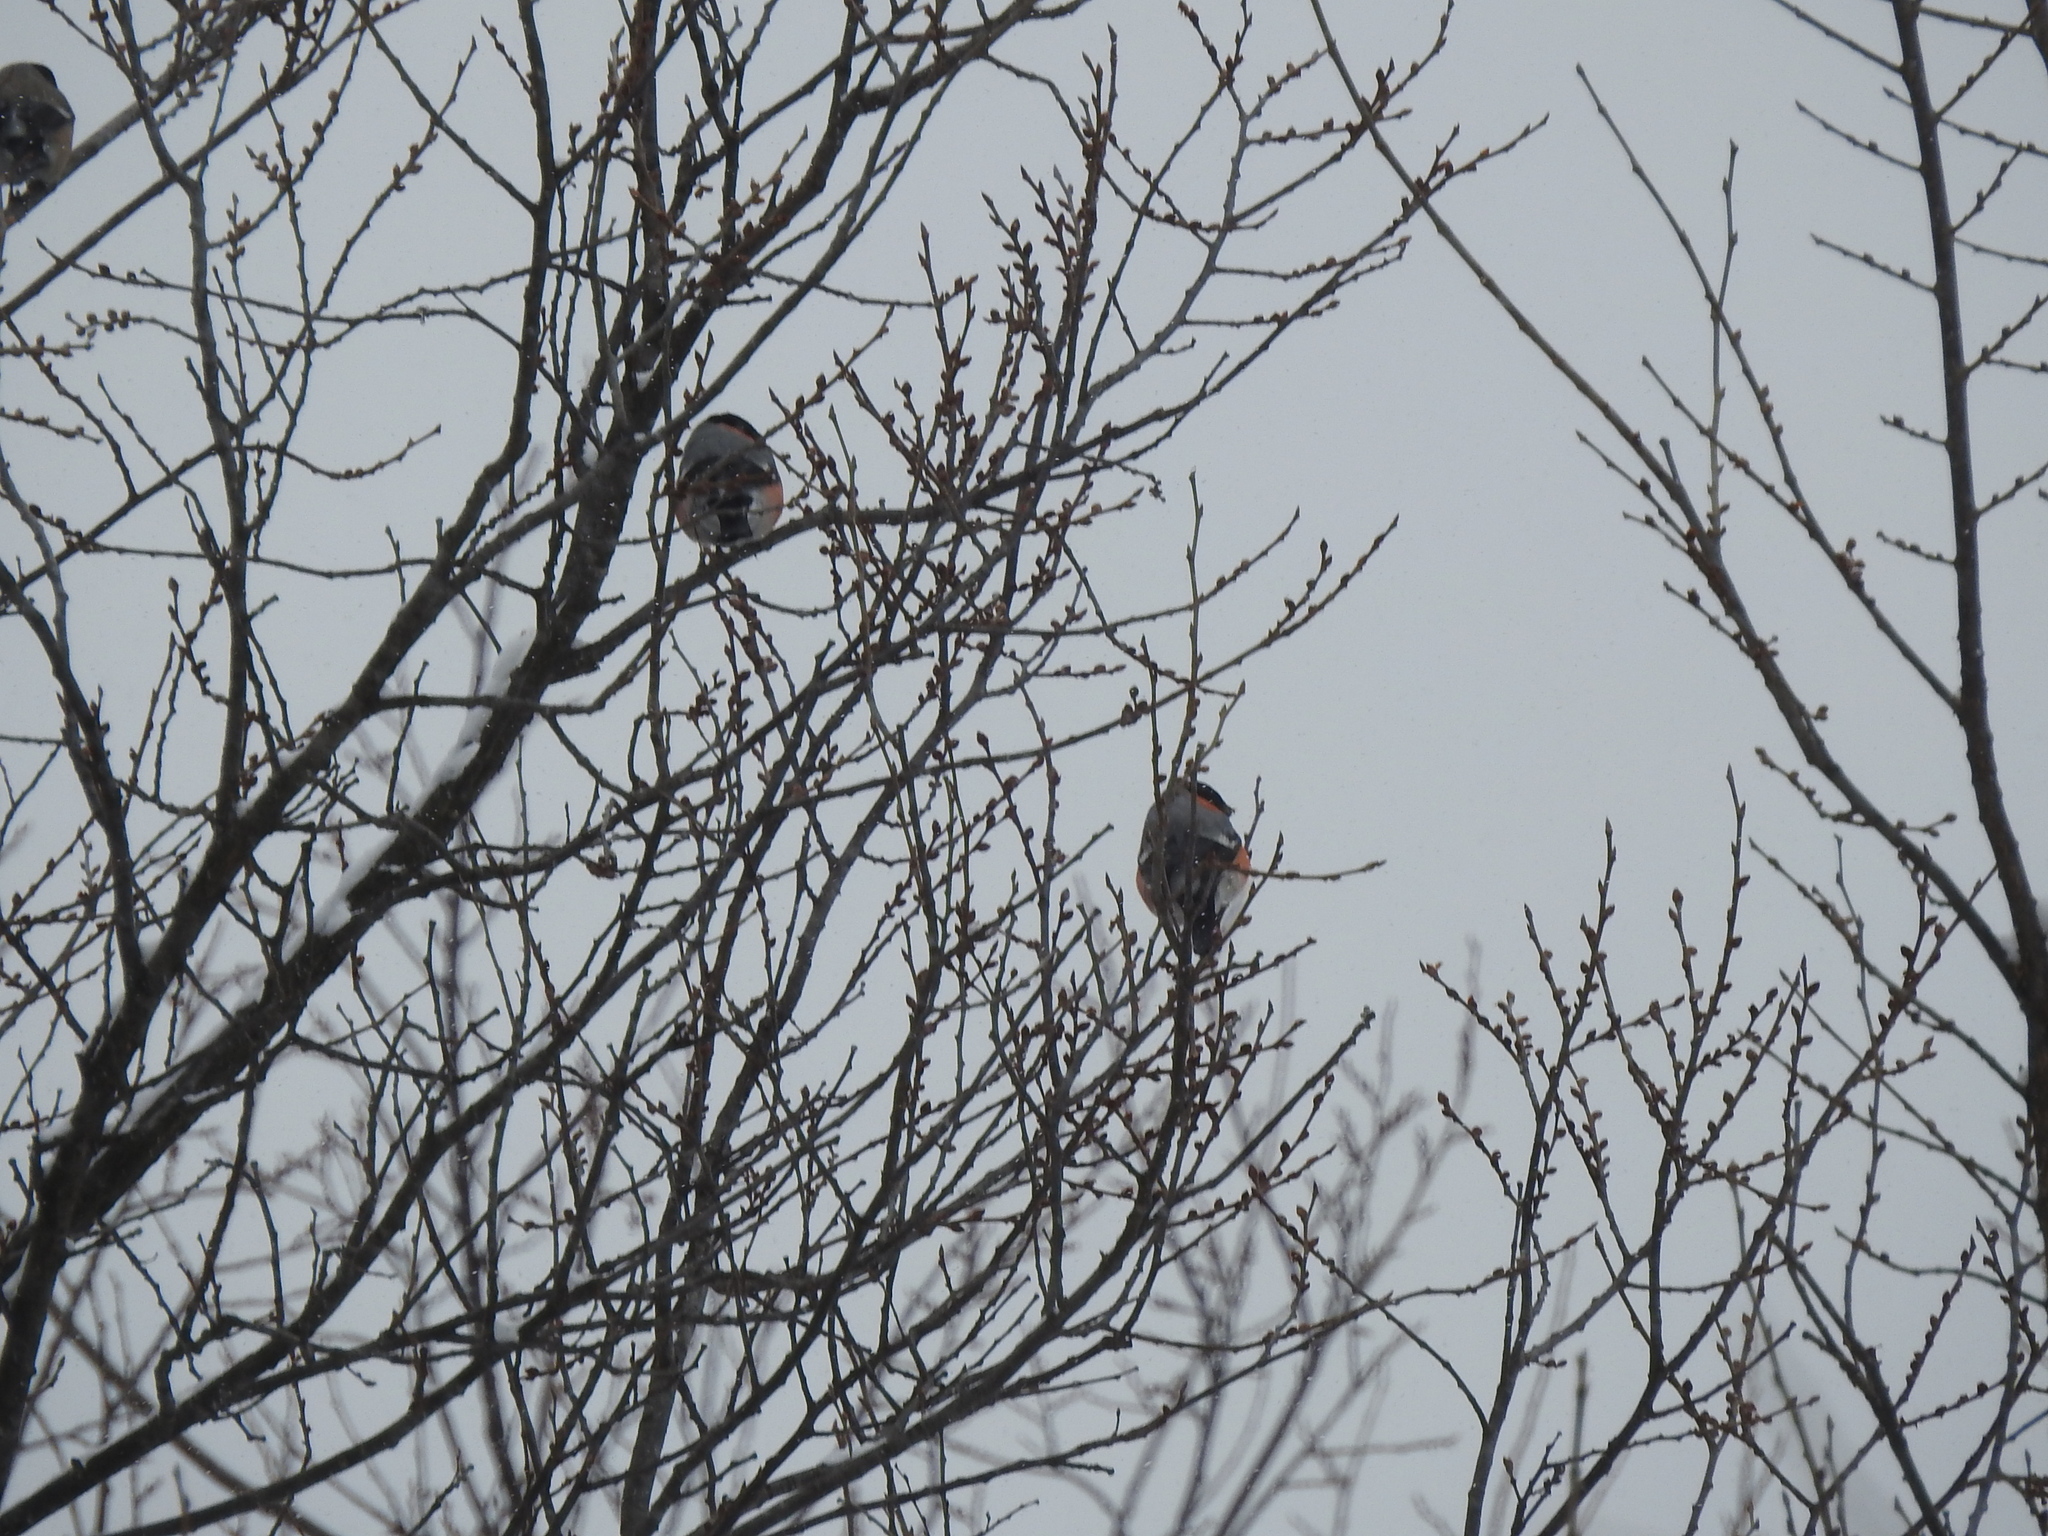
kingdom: Animalia
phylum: Chordata
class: Aves
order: Passeriformes
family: Fringillidae
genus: Pyrrhula
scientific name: Pyrrhula pyrrhula
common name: Eurasian bullfinch
